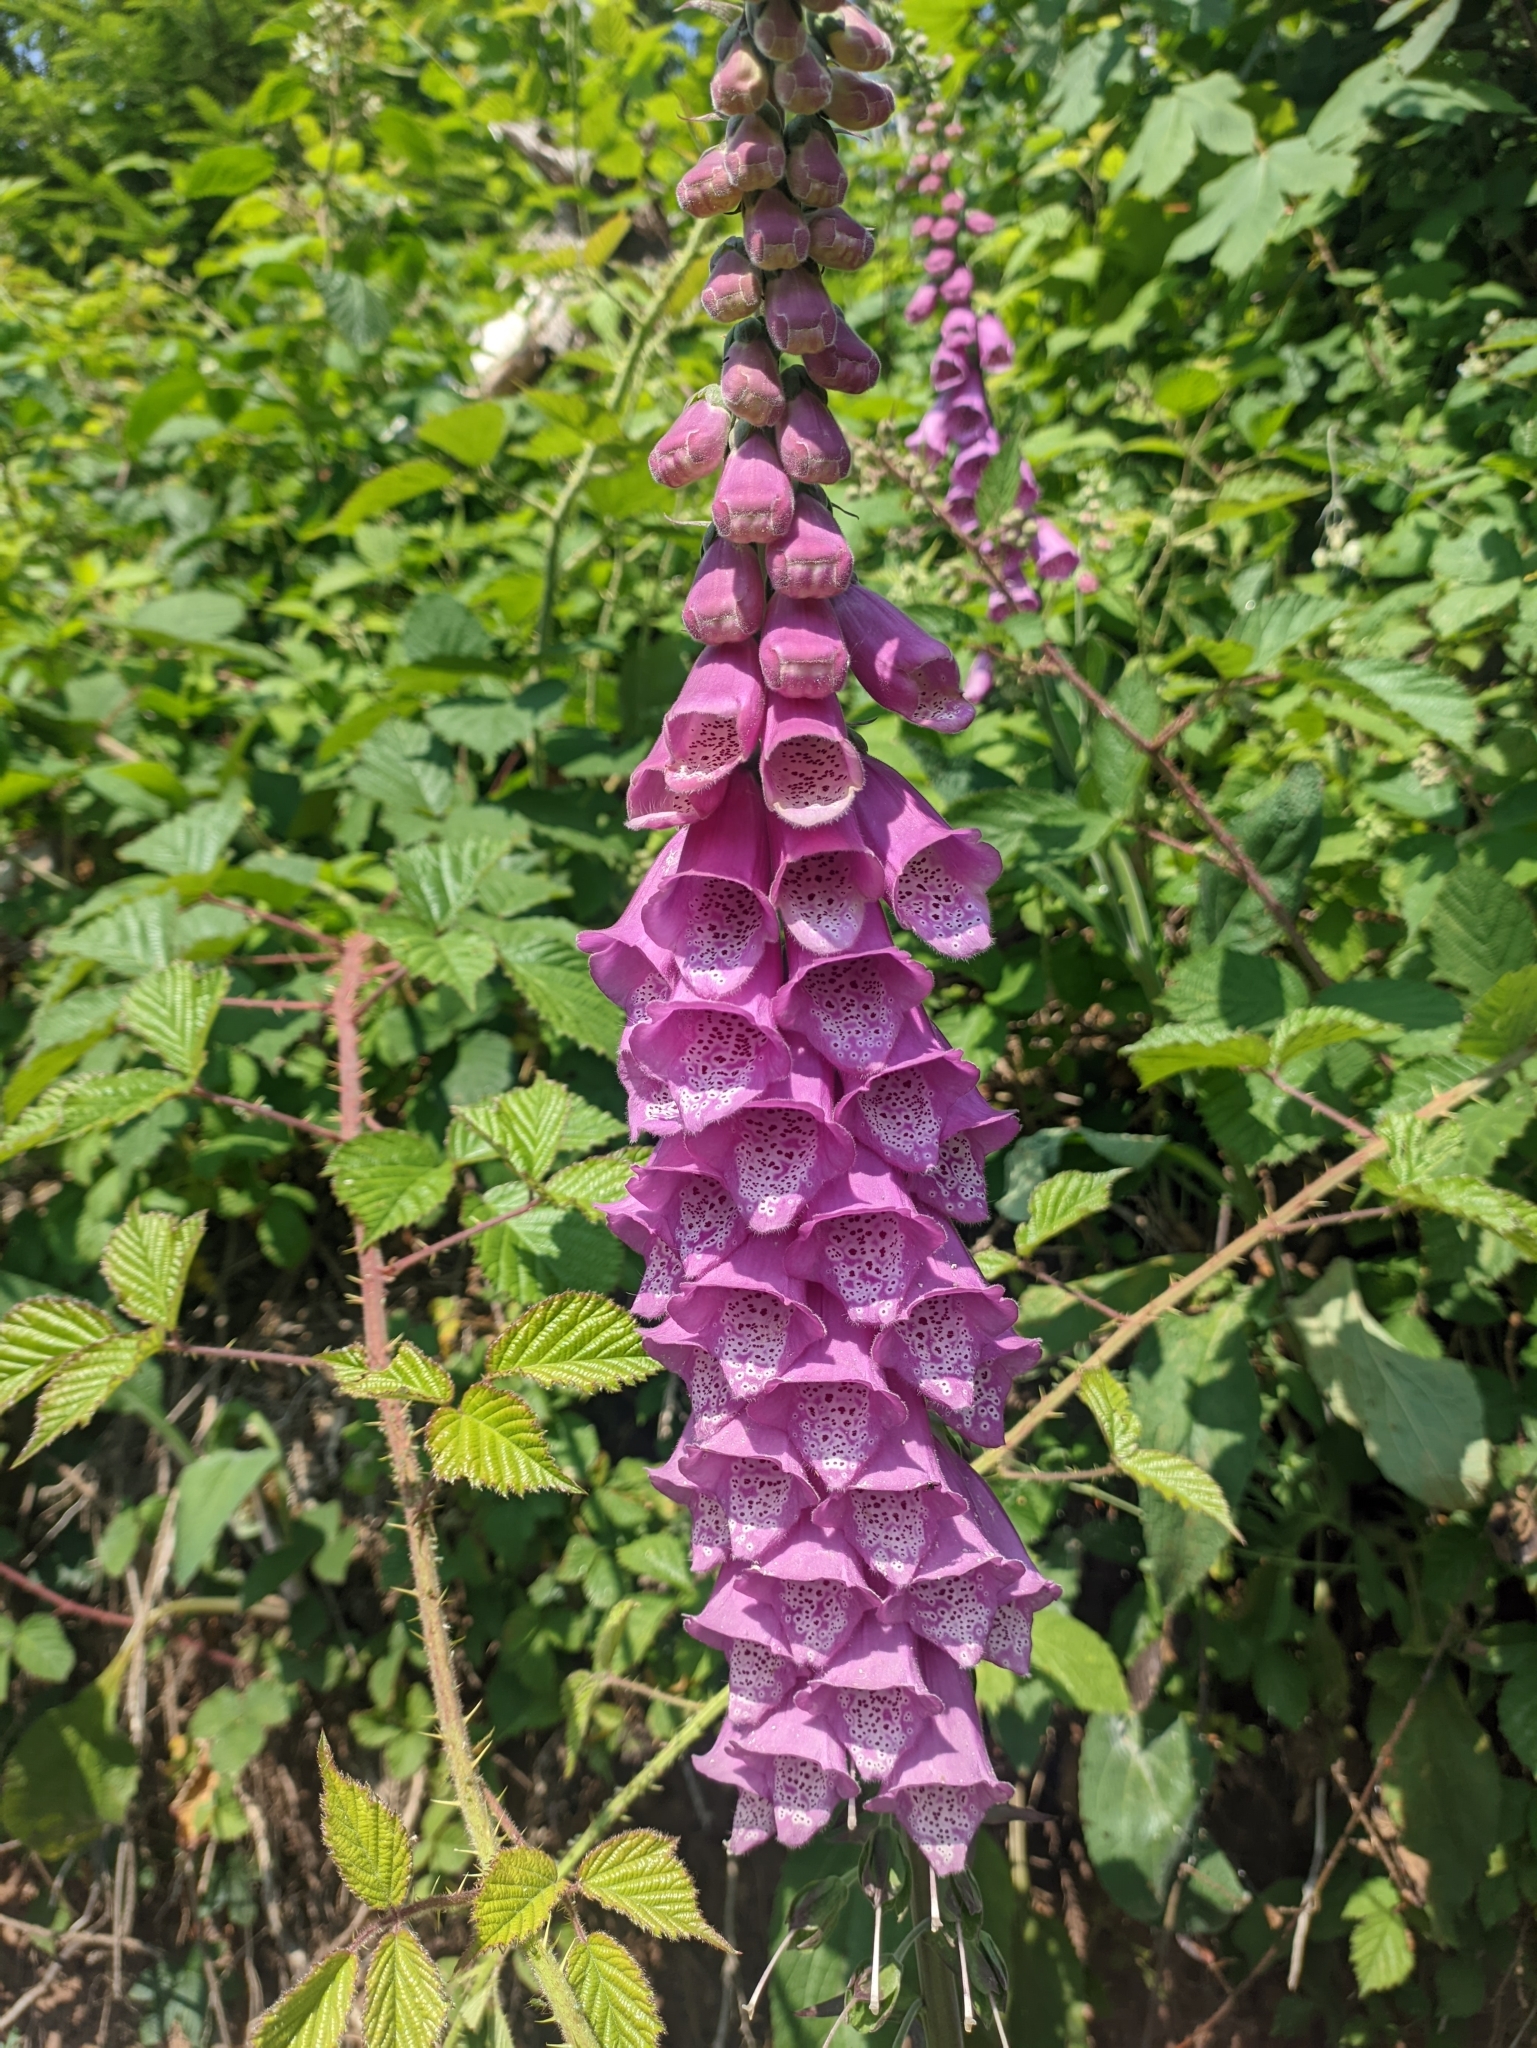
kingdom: Plantae
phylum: Tracheophyta
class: Magnoliopsida
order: Lamiales
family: Plantaginaceae
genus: Digitalis
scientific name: Digitalis purpurea
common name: Foxglove
